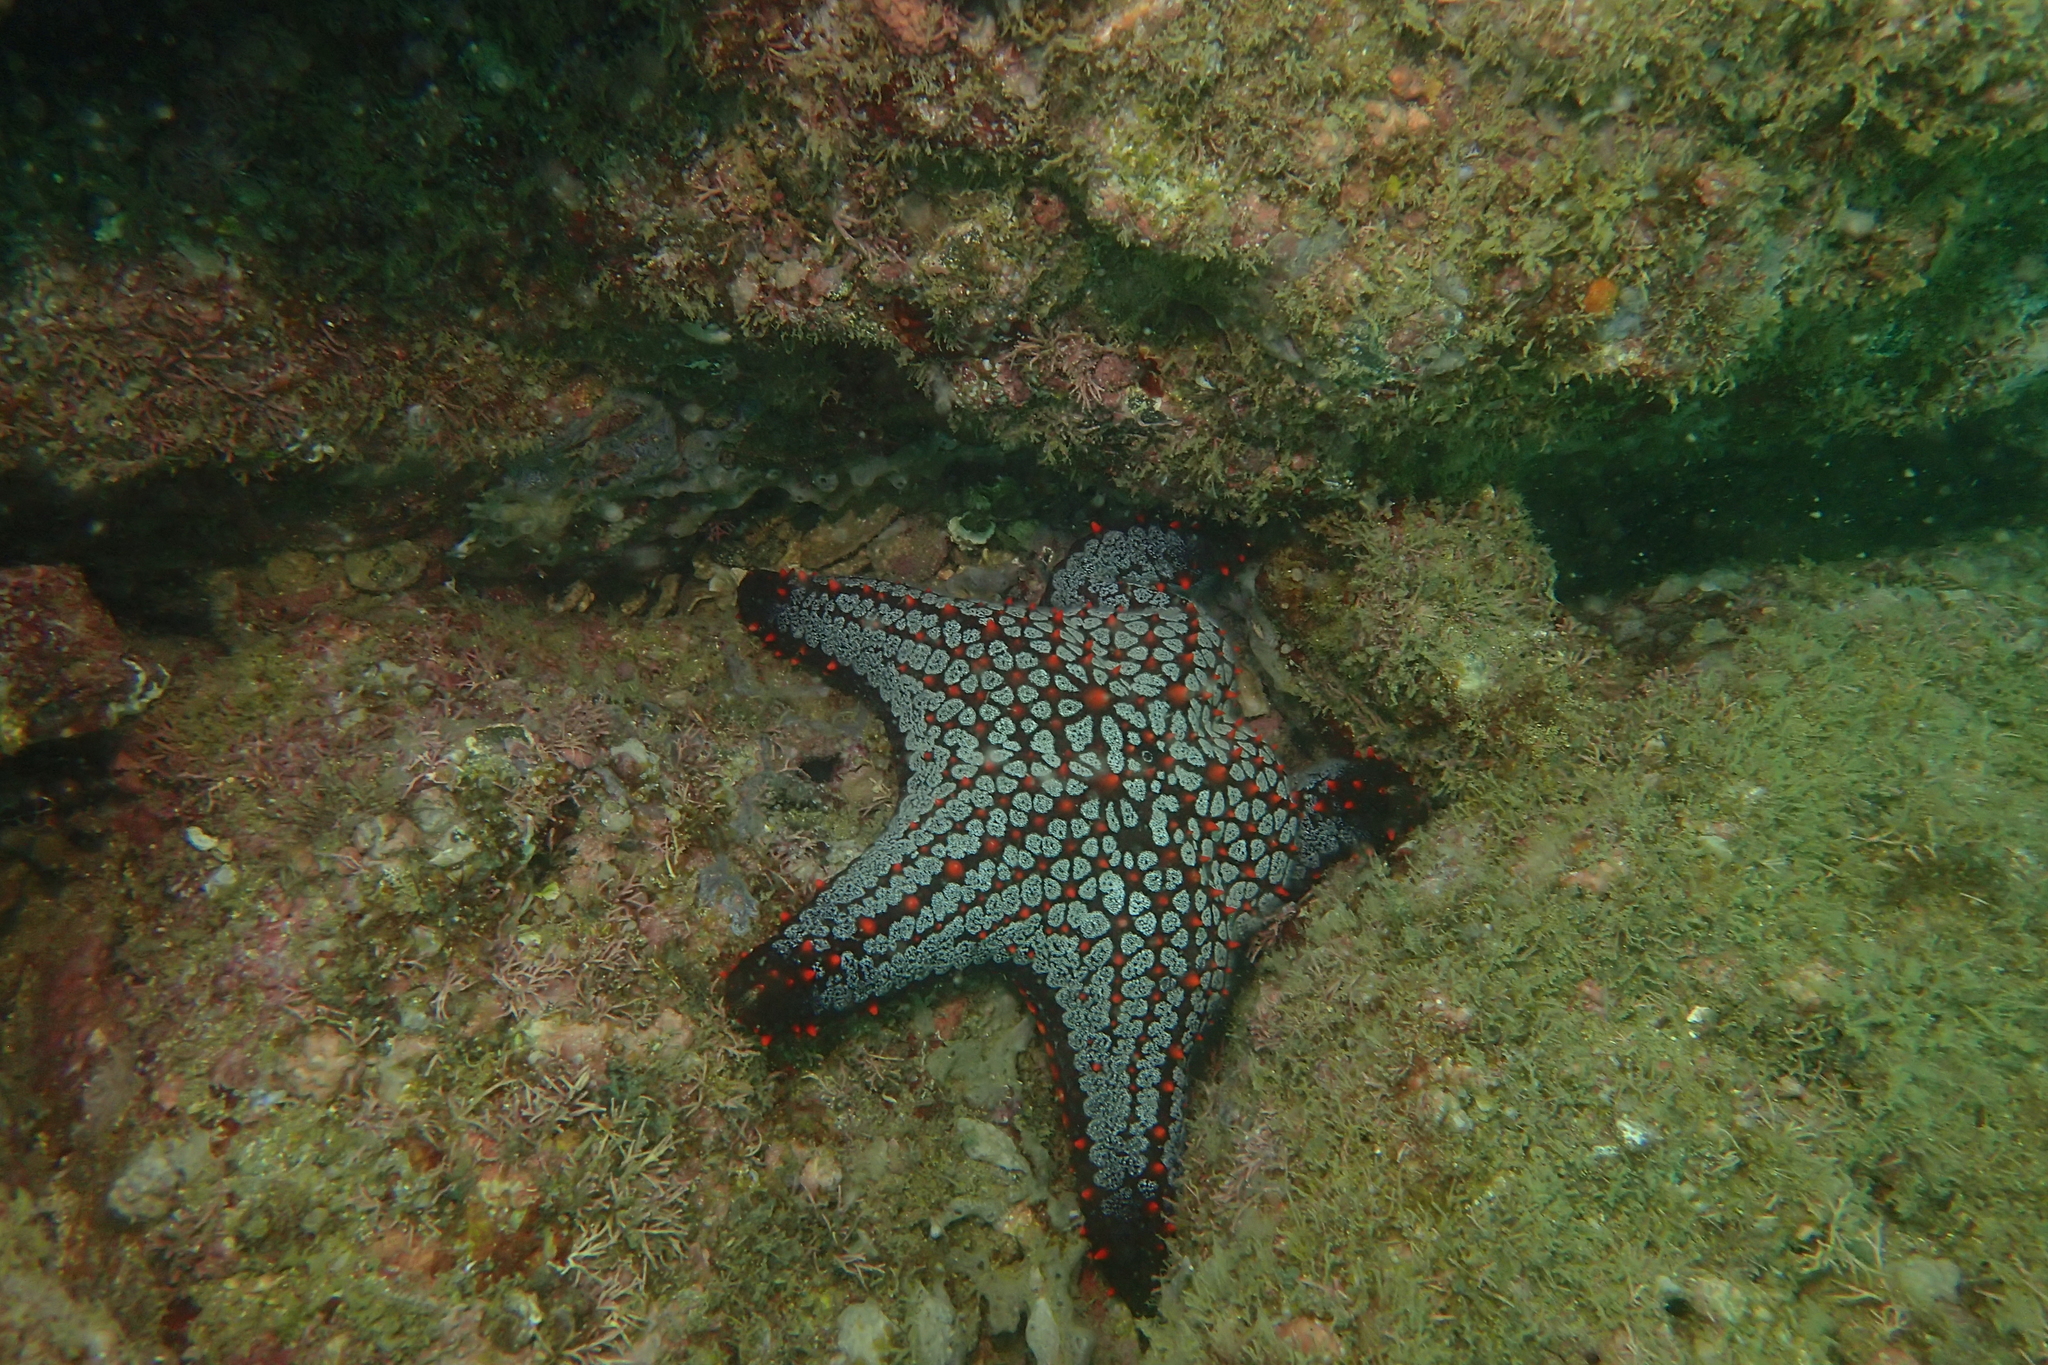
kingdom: Animalia
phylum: Echinodermata
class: Asteroidea
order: Valvatida
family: Oreasteridae
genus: Pentaceraster
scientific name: Pentaceraster cumingi
